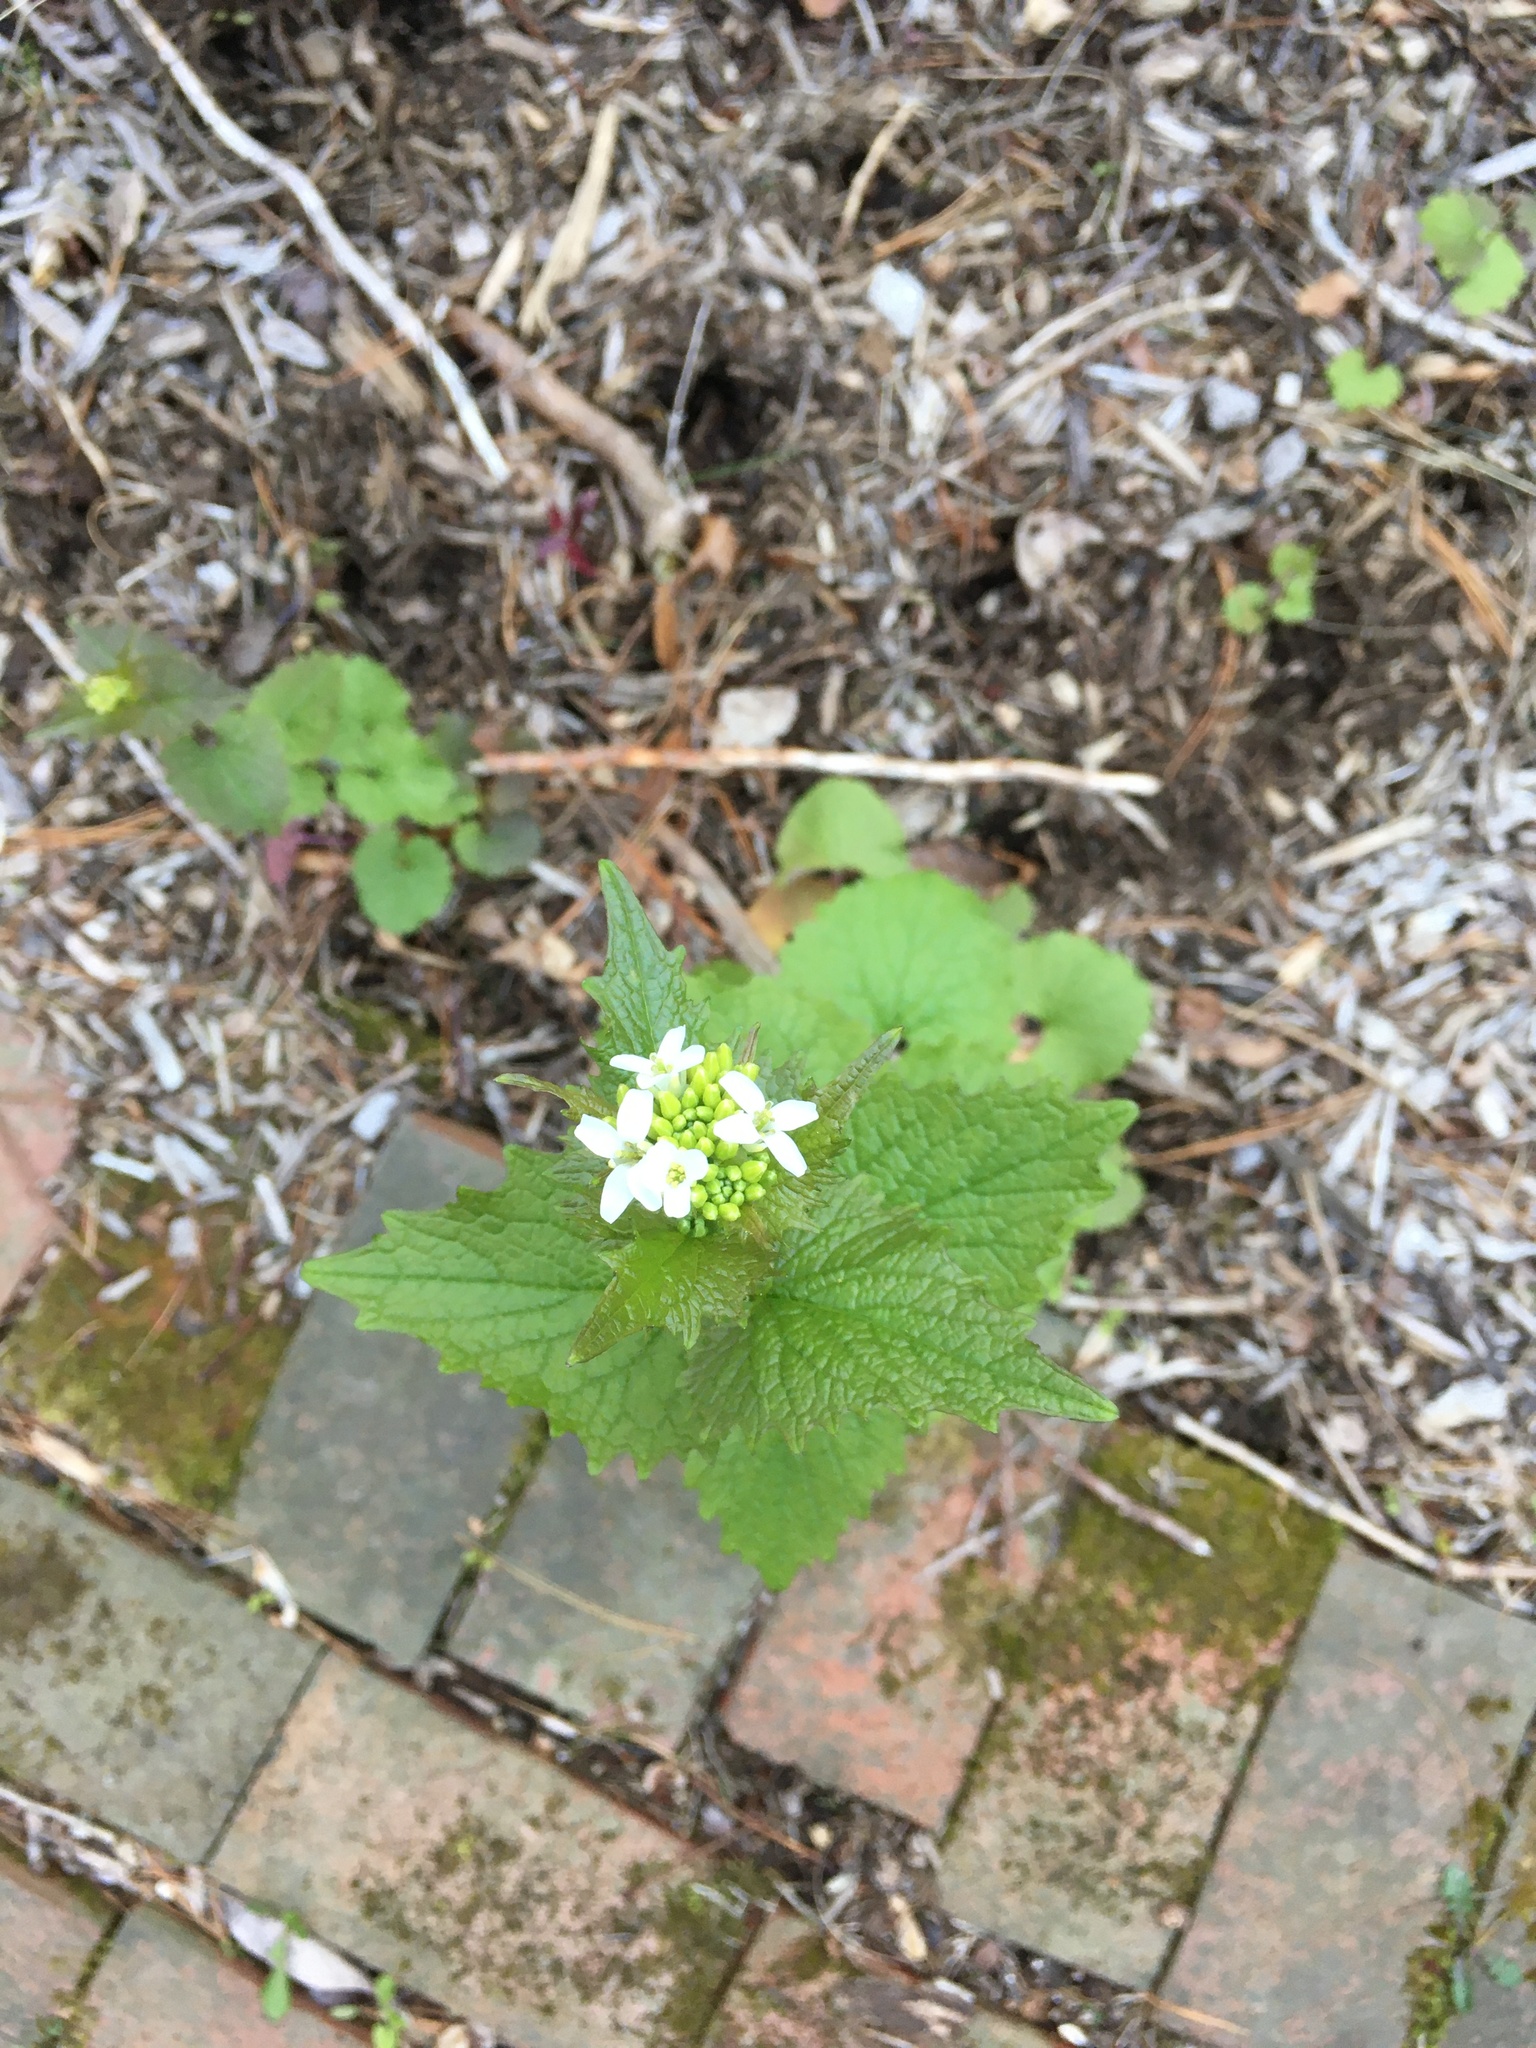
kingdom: Plantae
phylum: Tracheophyta
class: Magnoliopsida
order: Brassicales
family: Brassicaceae
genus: Alliaria
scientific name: Alliaria petiolata
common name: Garlic mustard
